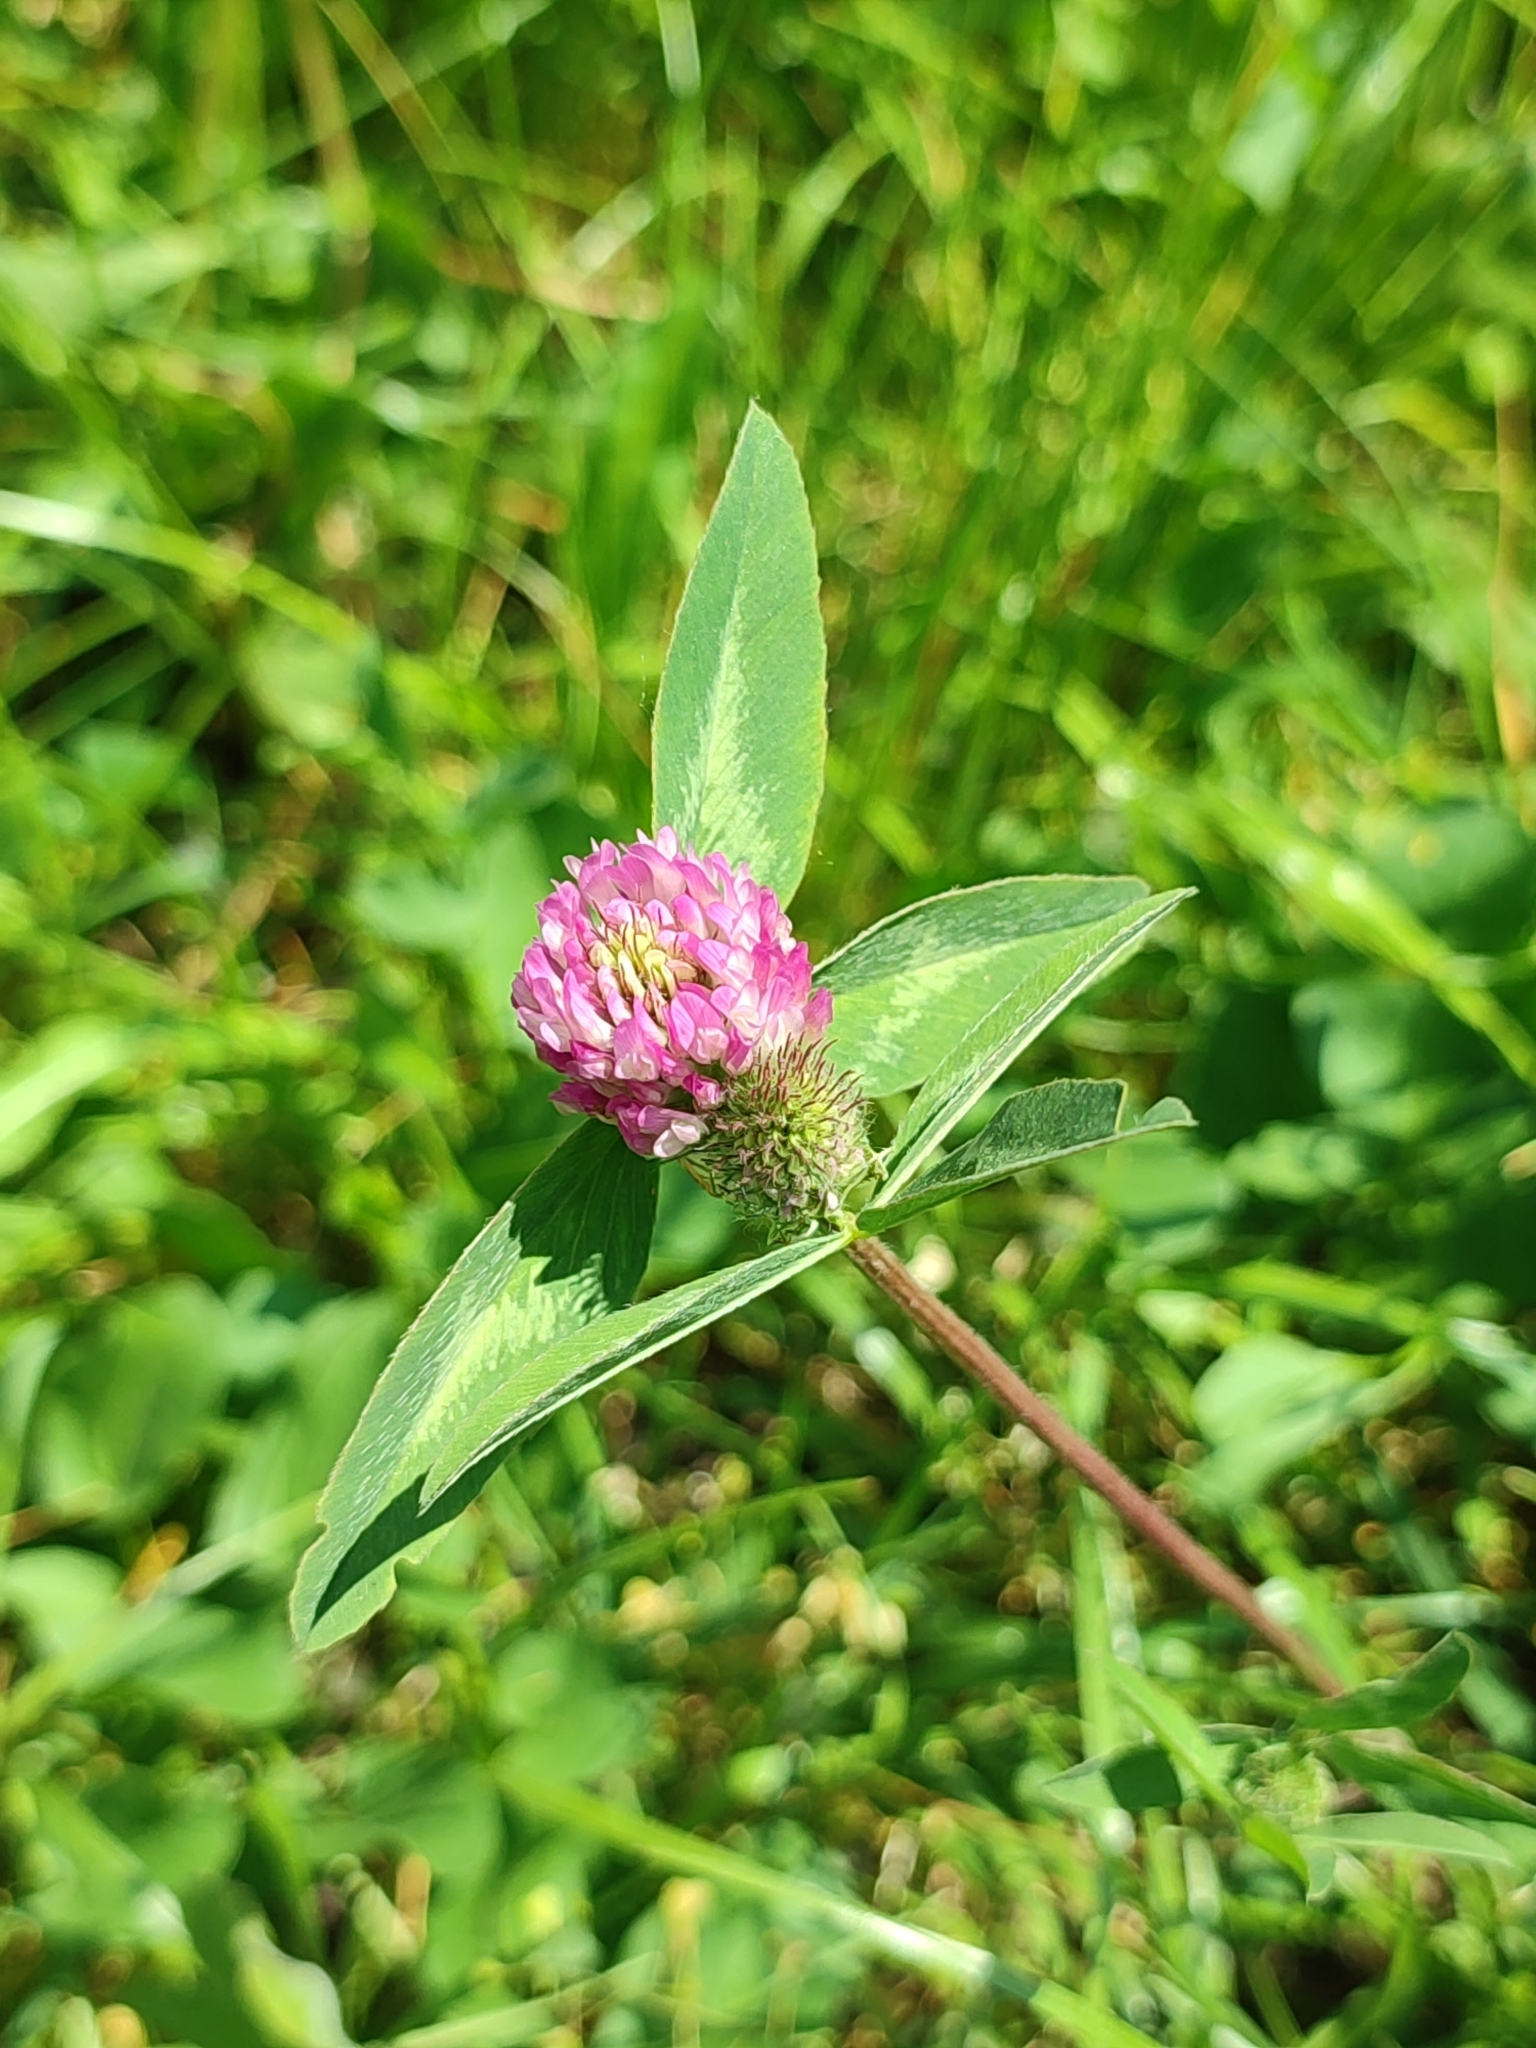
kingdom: Plantae
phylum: Tracheophyta
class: Magnoliopsida
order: Fabales
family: Fabaceae
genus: Trifolium
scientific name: Trifolium pratense
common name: Red clover
